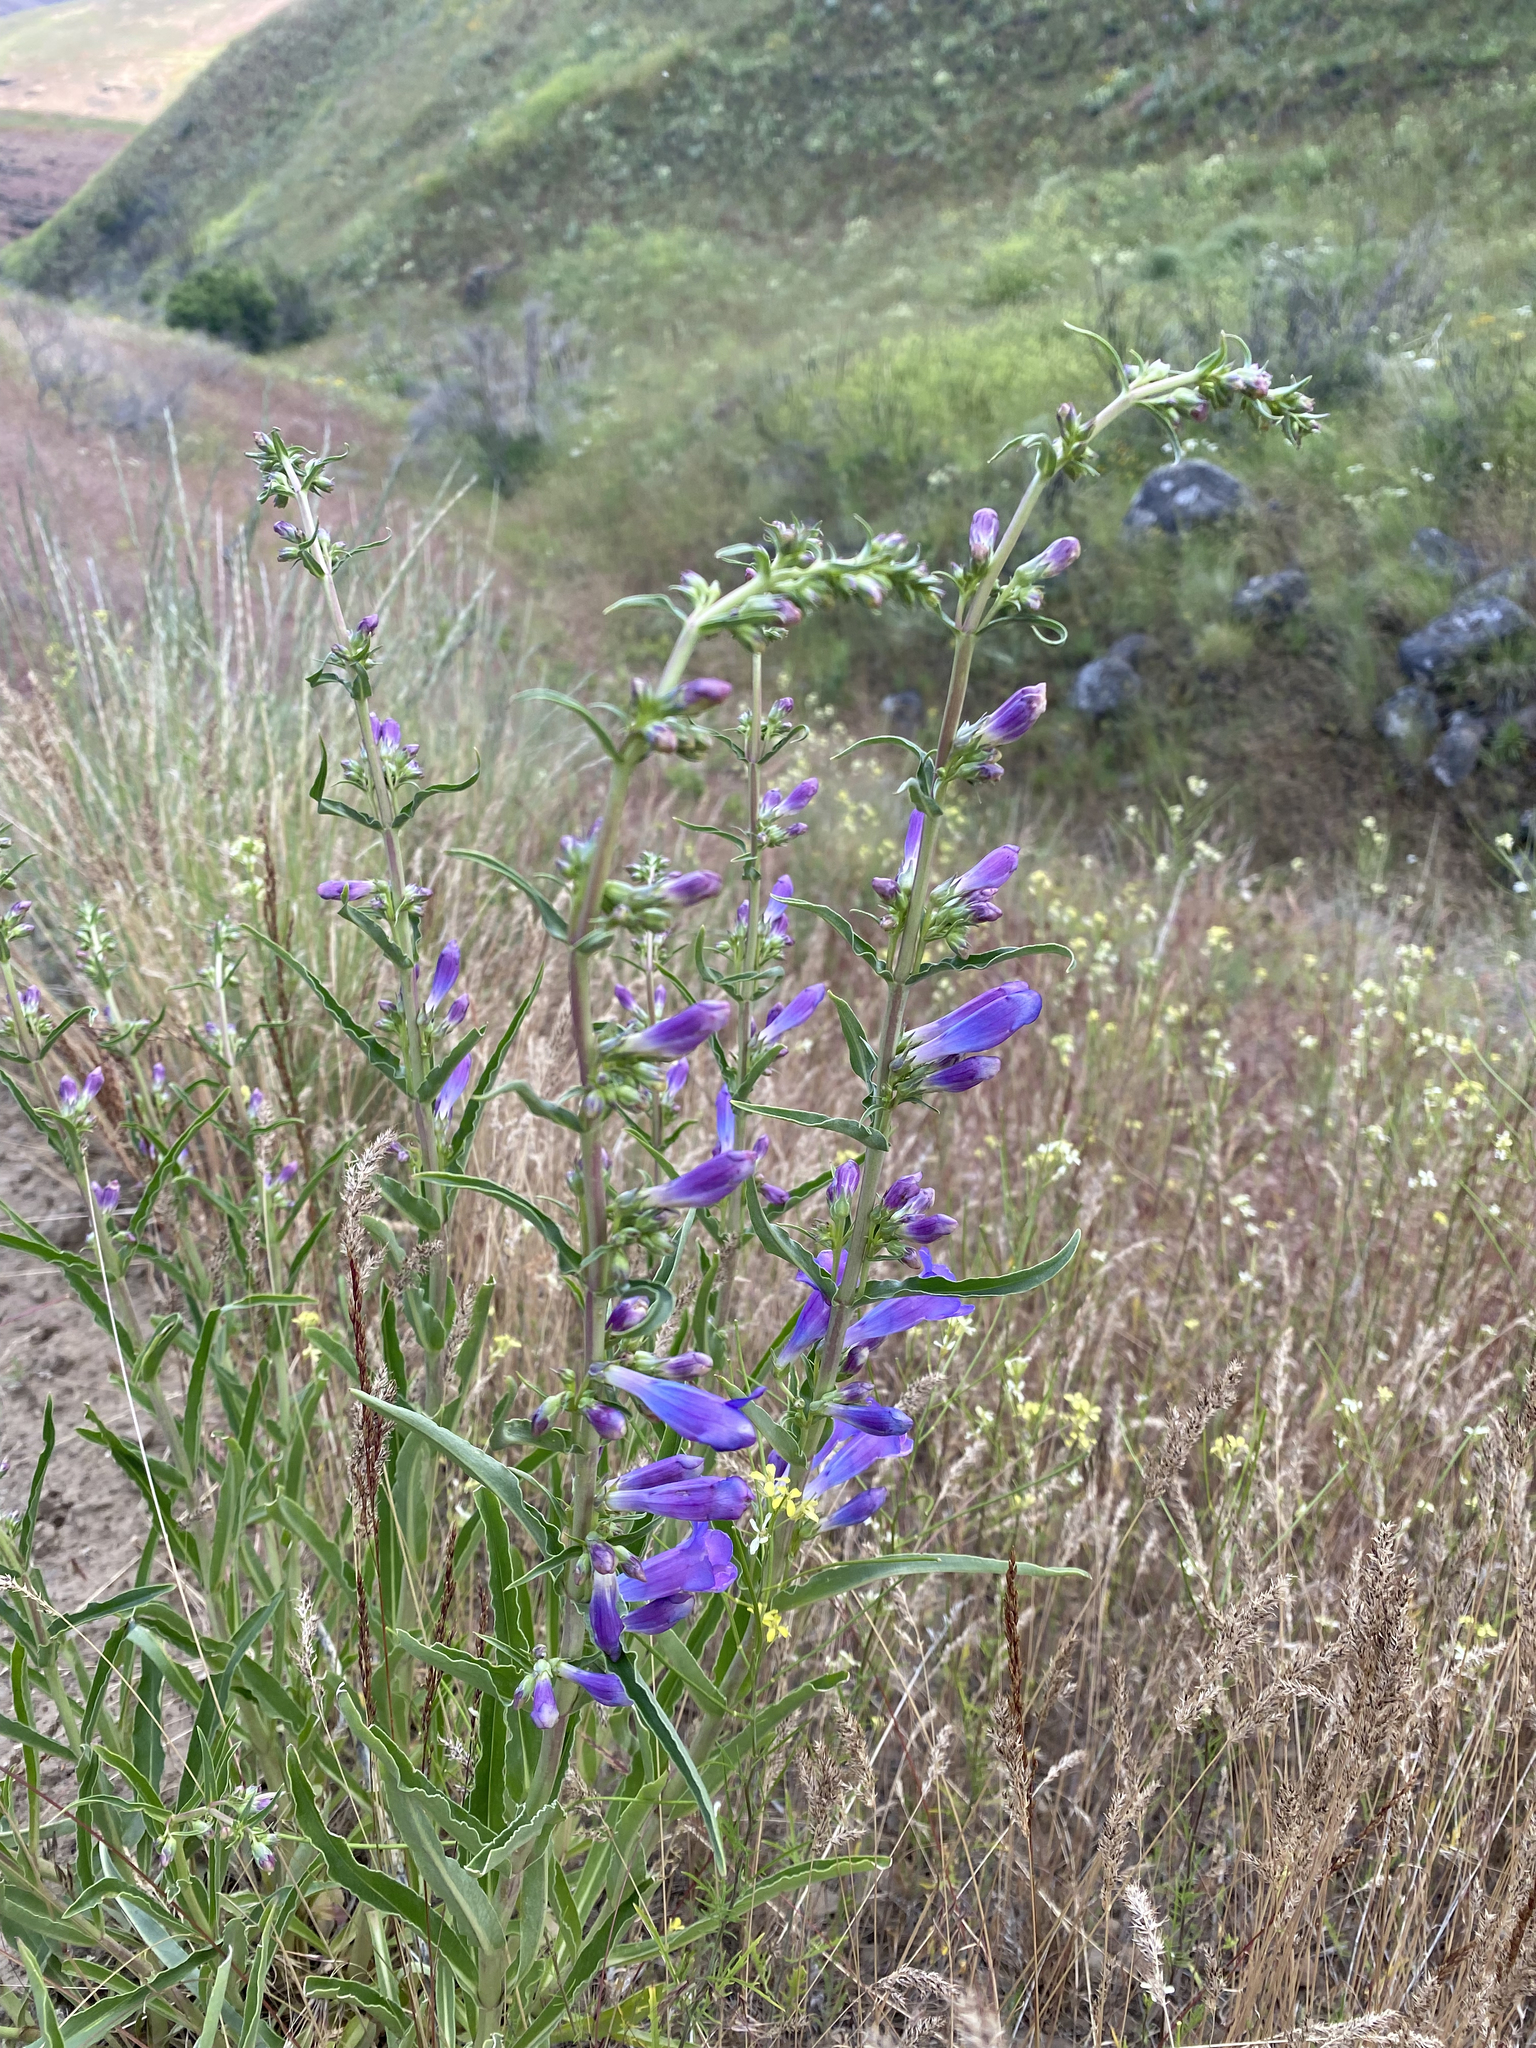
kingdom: Plantae
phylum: Tracheophyta
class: Magnoliopsida
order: Lamiales
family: Plantaginaceae
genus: Penstemon
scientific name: Penstemon speciosus
